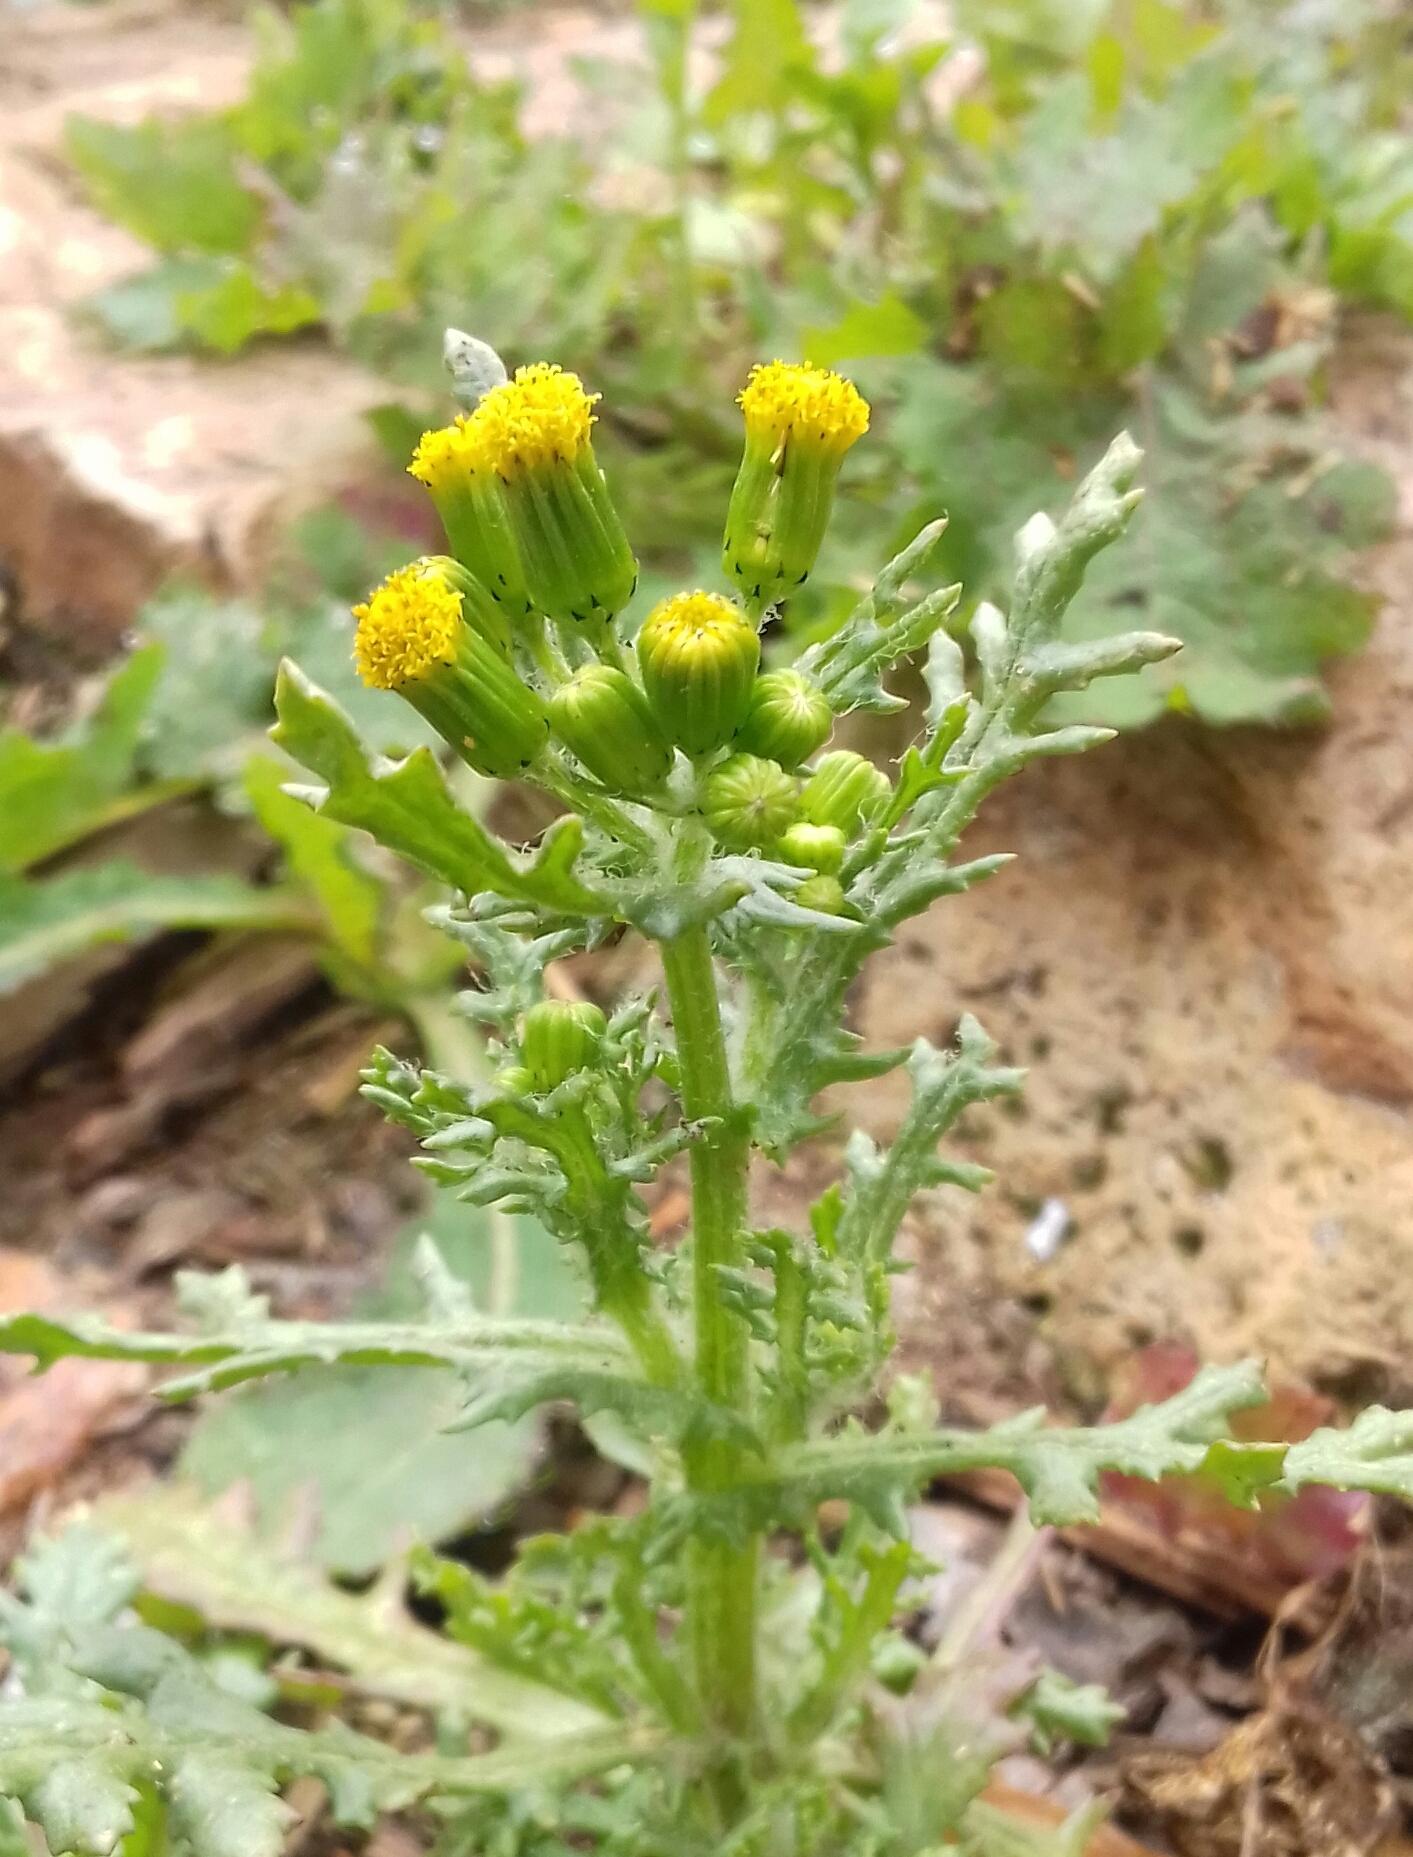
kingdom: Plantae
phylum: Tracheophyta
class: Magnoliopsida
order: Asterales
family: Asteraceae
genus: Senecio
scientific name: Senecio vulgaris
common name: Old-man-in-the-spring
